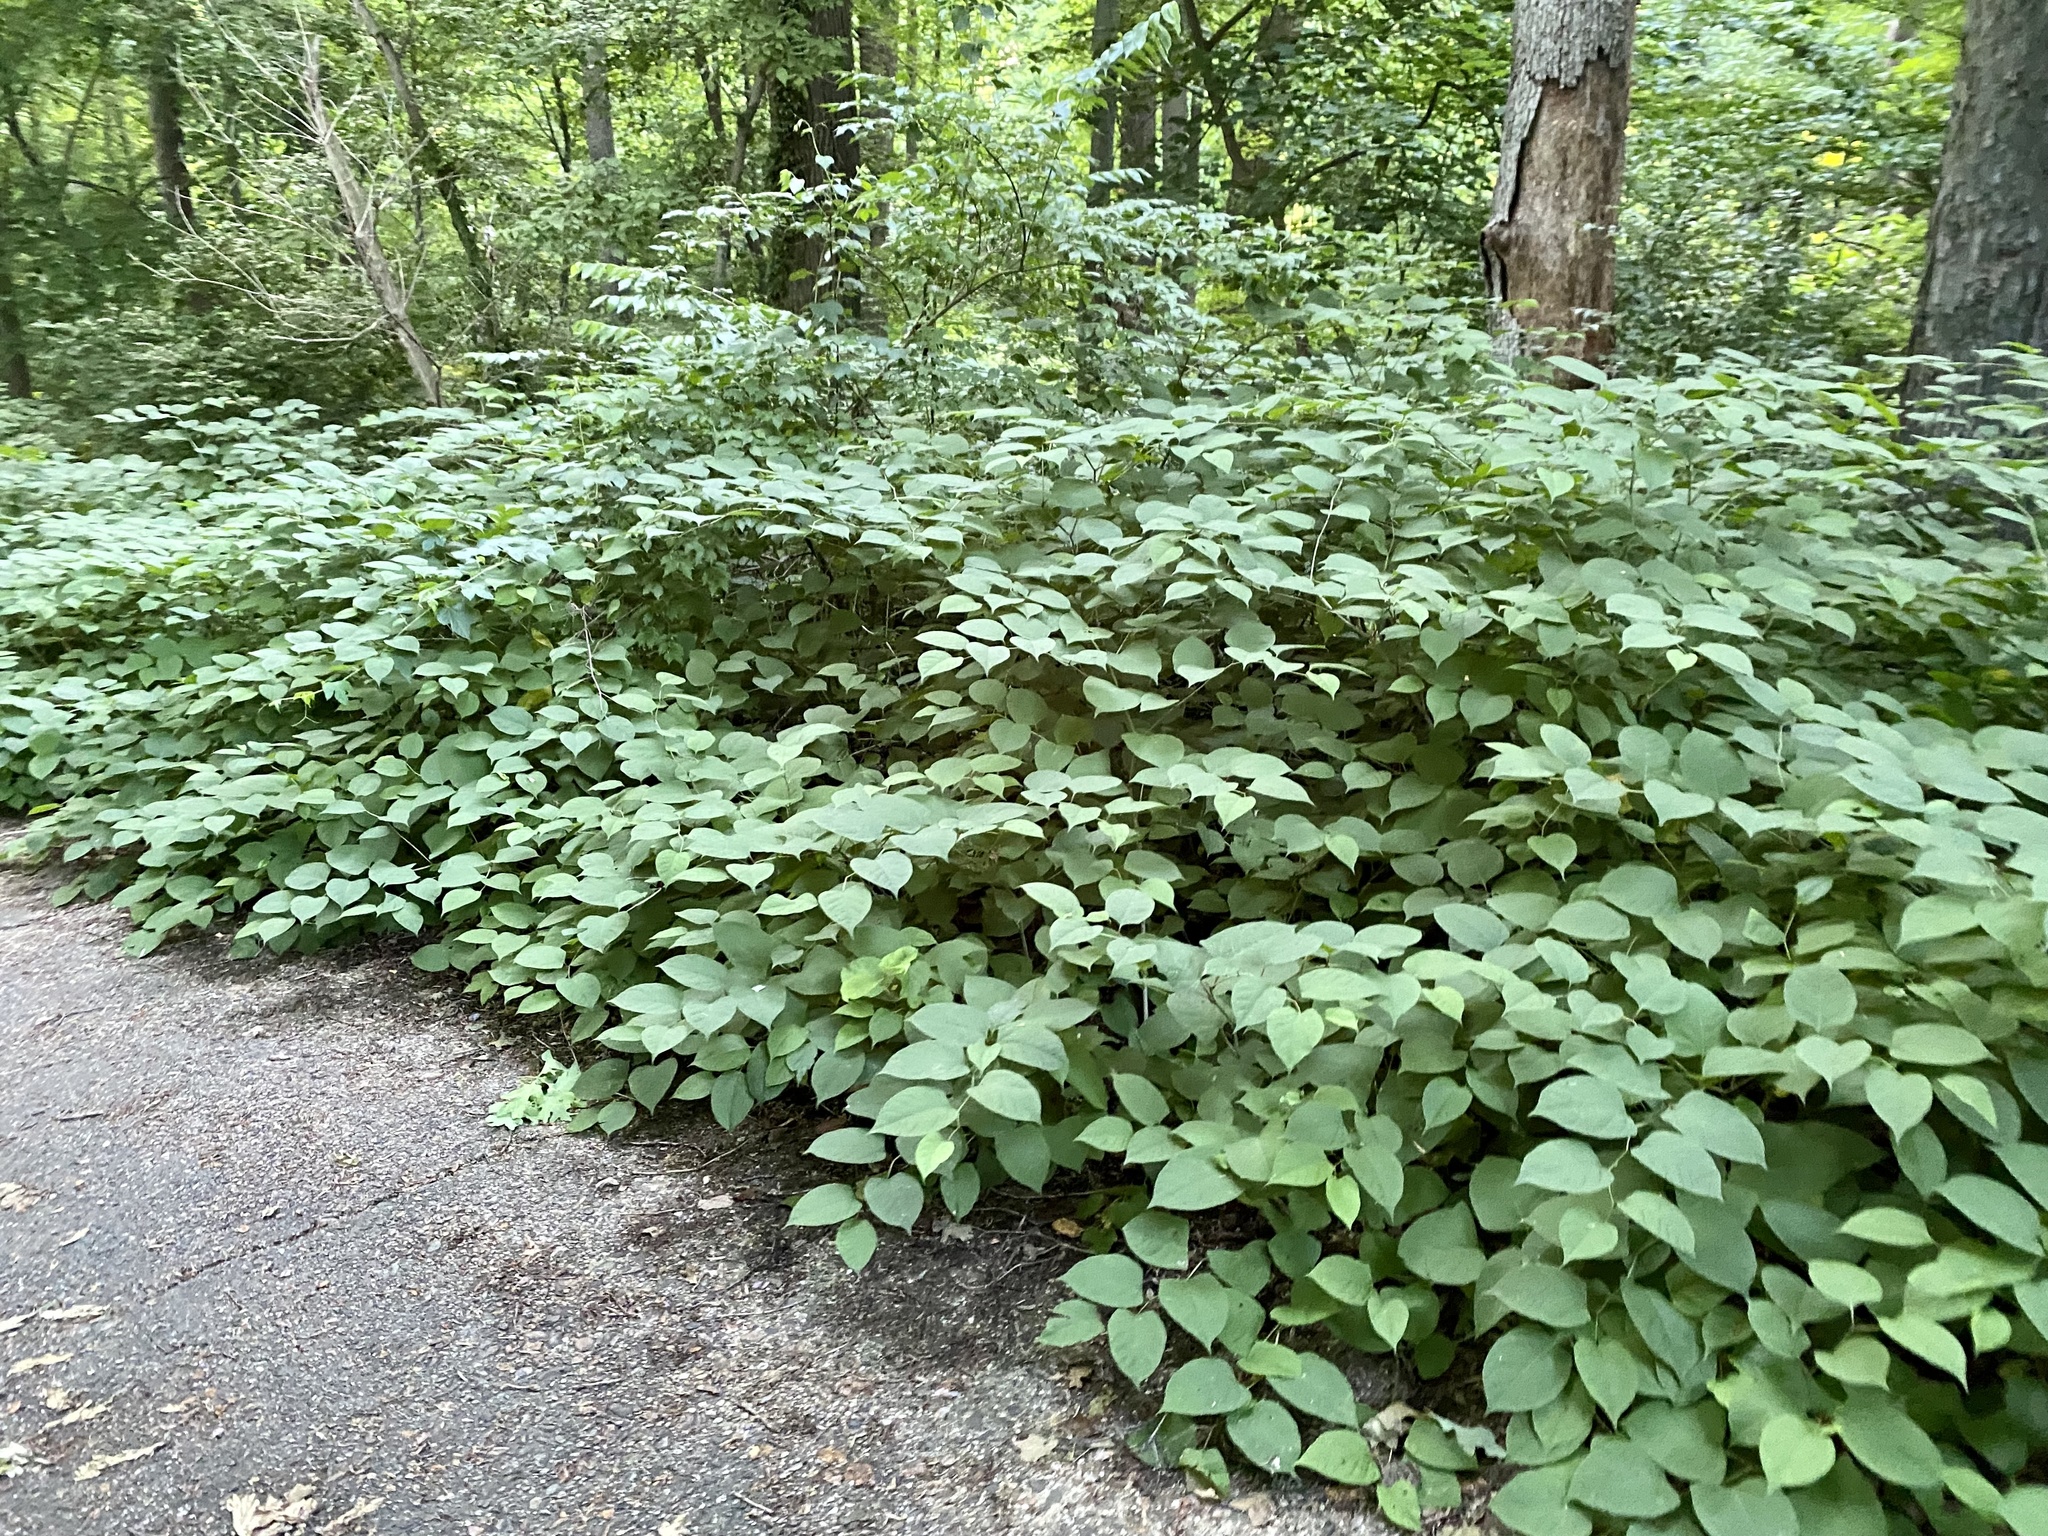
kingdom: Plantae
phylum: Tracheophyta
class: Magnoliopsida
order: Caryophyllales
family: Polygonaceae
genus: Reynoutria
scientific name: Reynoutria japonica
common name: Japanese knotweed
